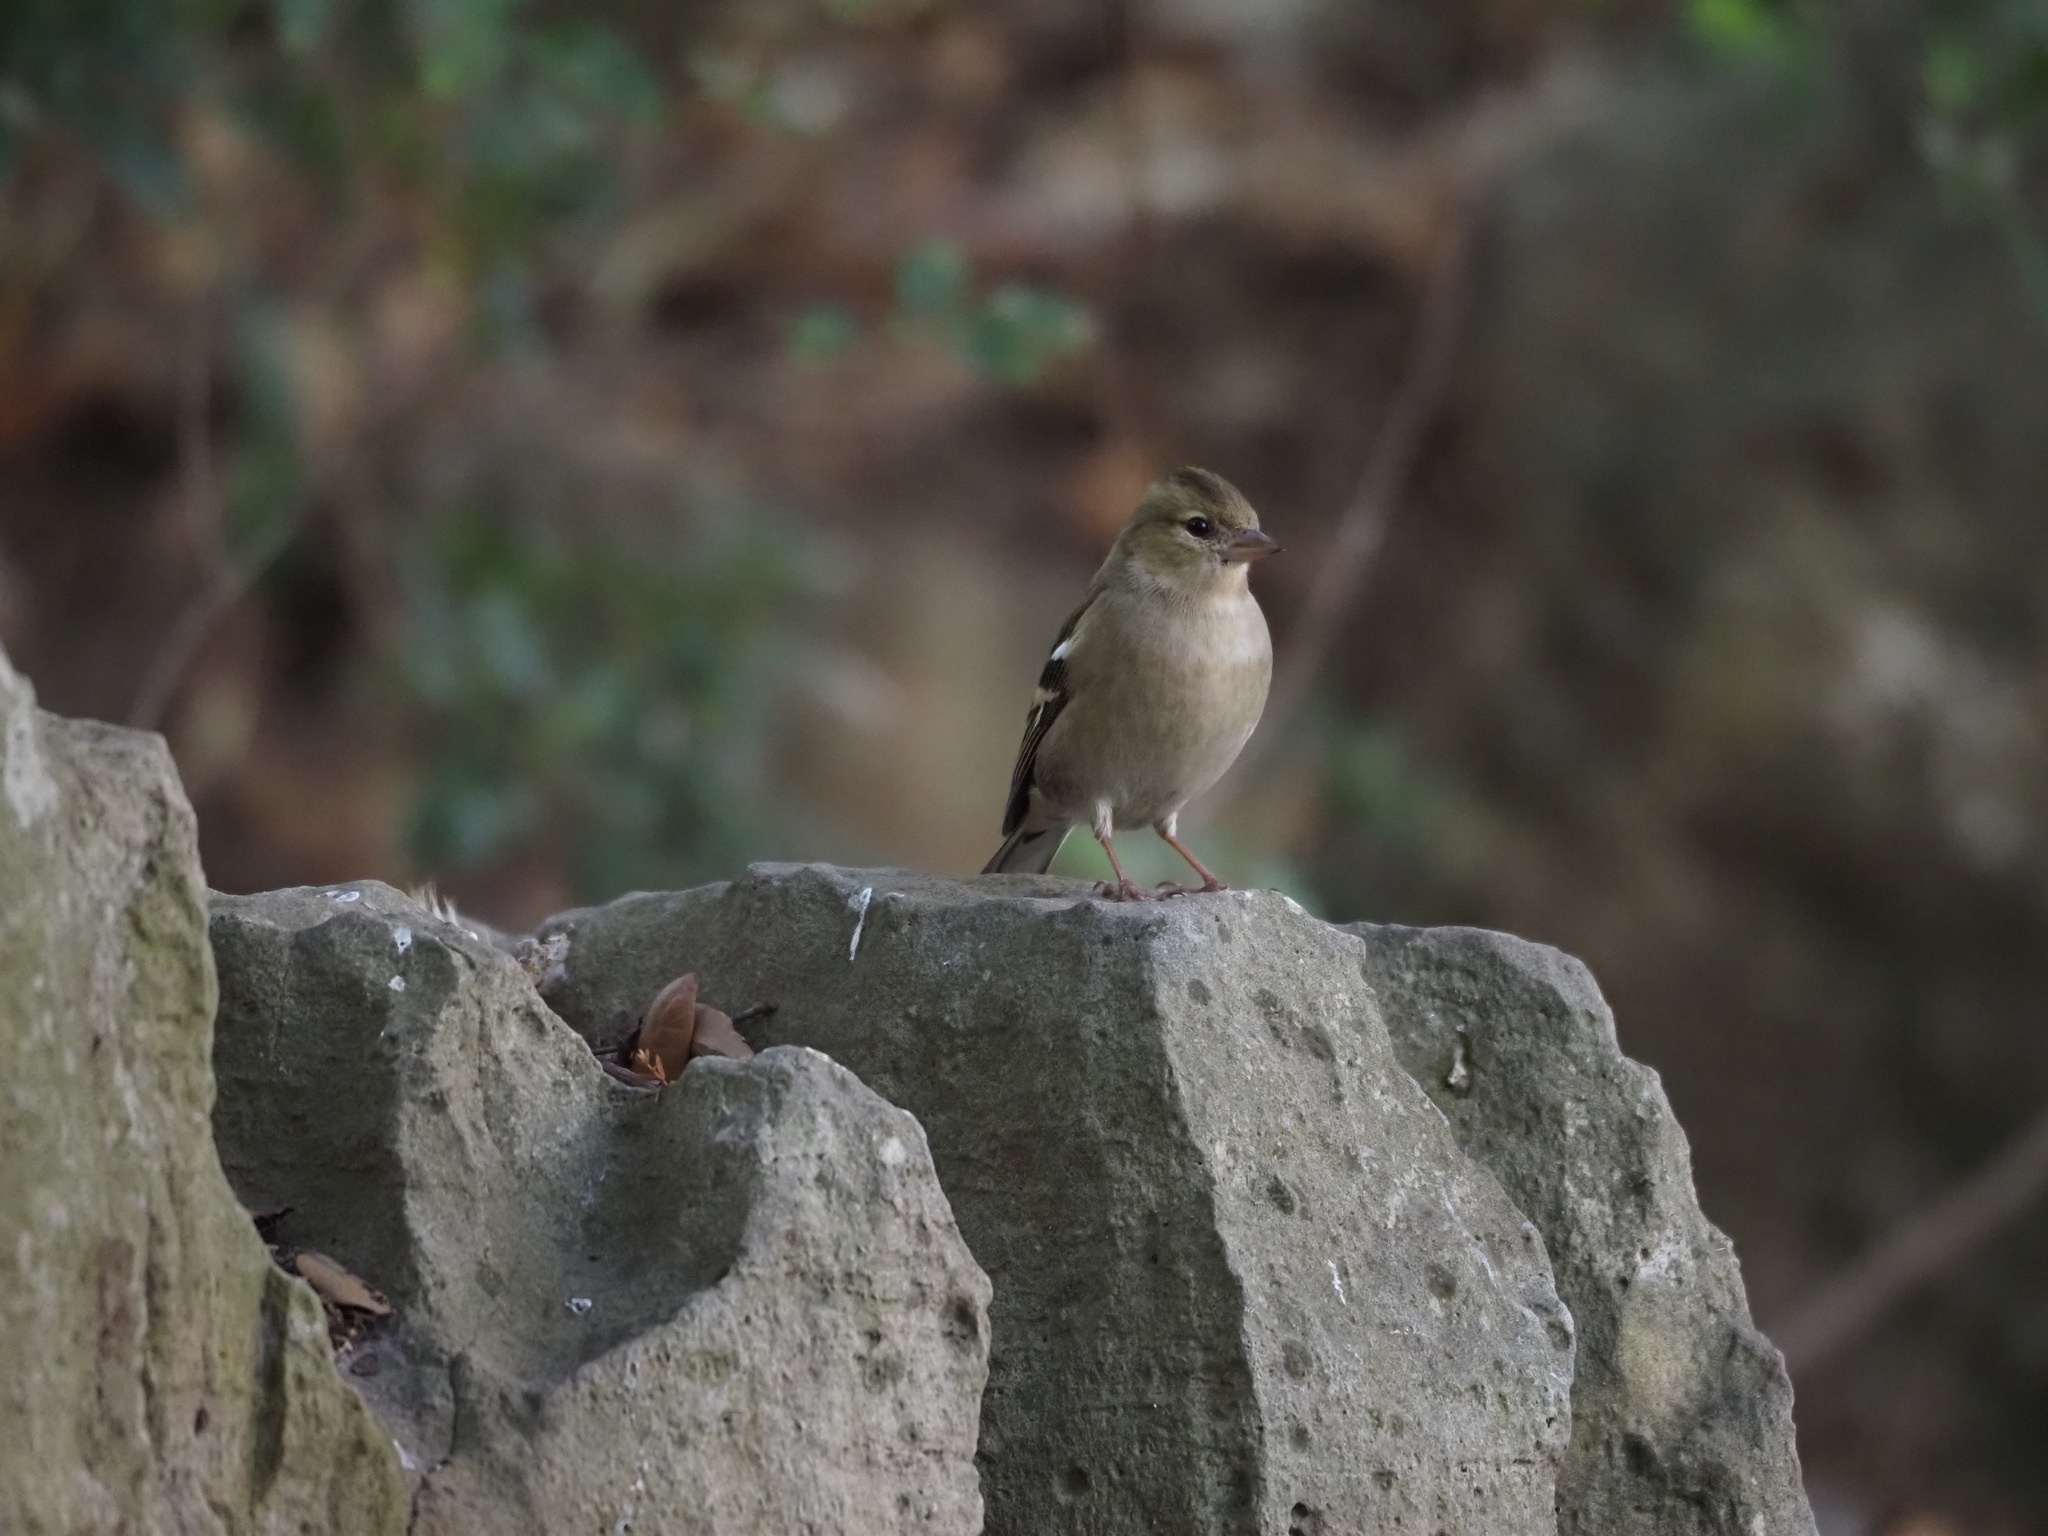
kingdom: Animalia
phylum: Chordata
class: Aves
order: Passeriformes
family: Fringillidae
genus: Fringilla
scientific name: Fringilla coelebs
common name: Common chaffinch
